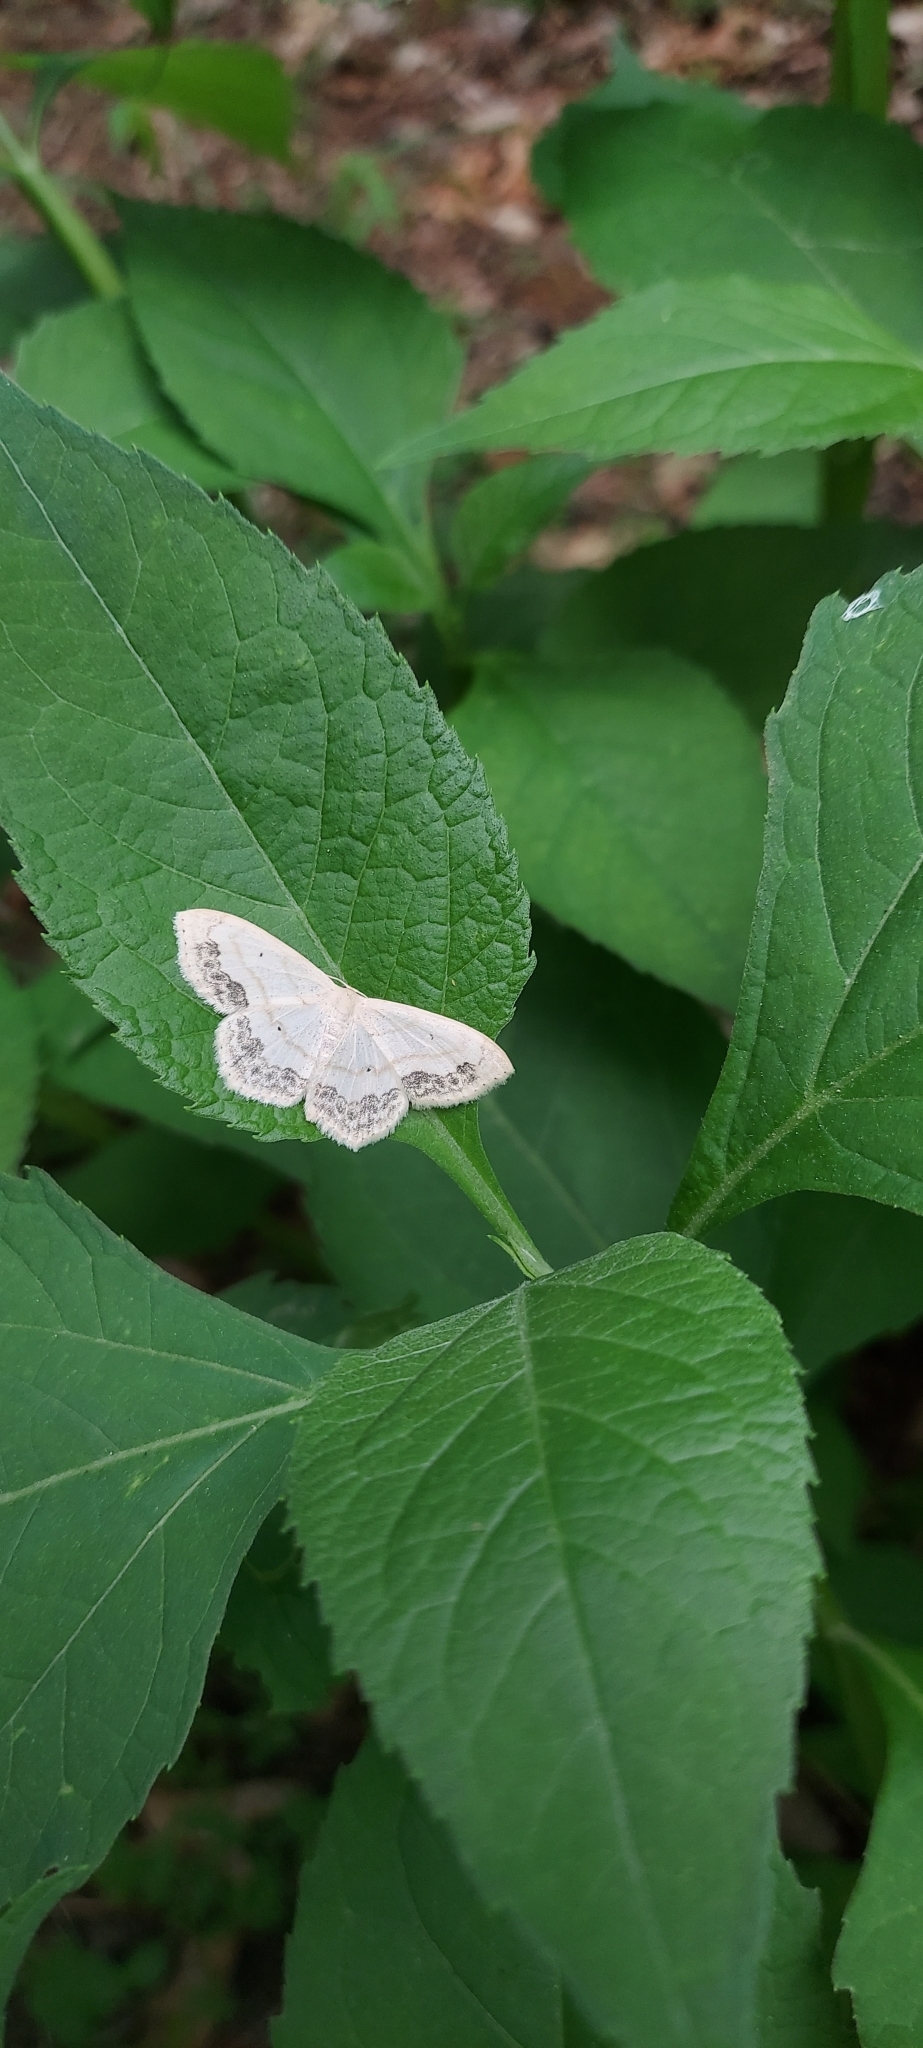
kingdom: Animalia
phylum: Arthropoda
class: Insecta
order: Lepidoptera
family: Geometridae
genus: Scopula
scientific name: Scopula limboundata
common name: Large lace border
